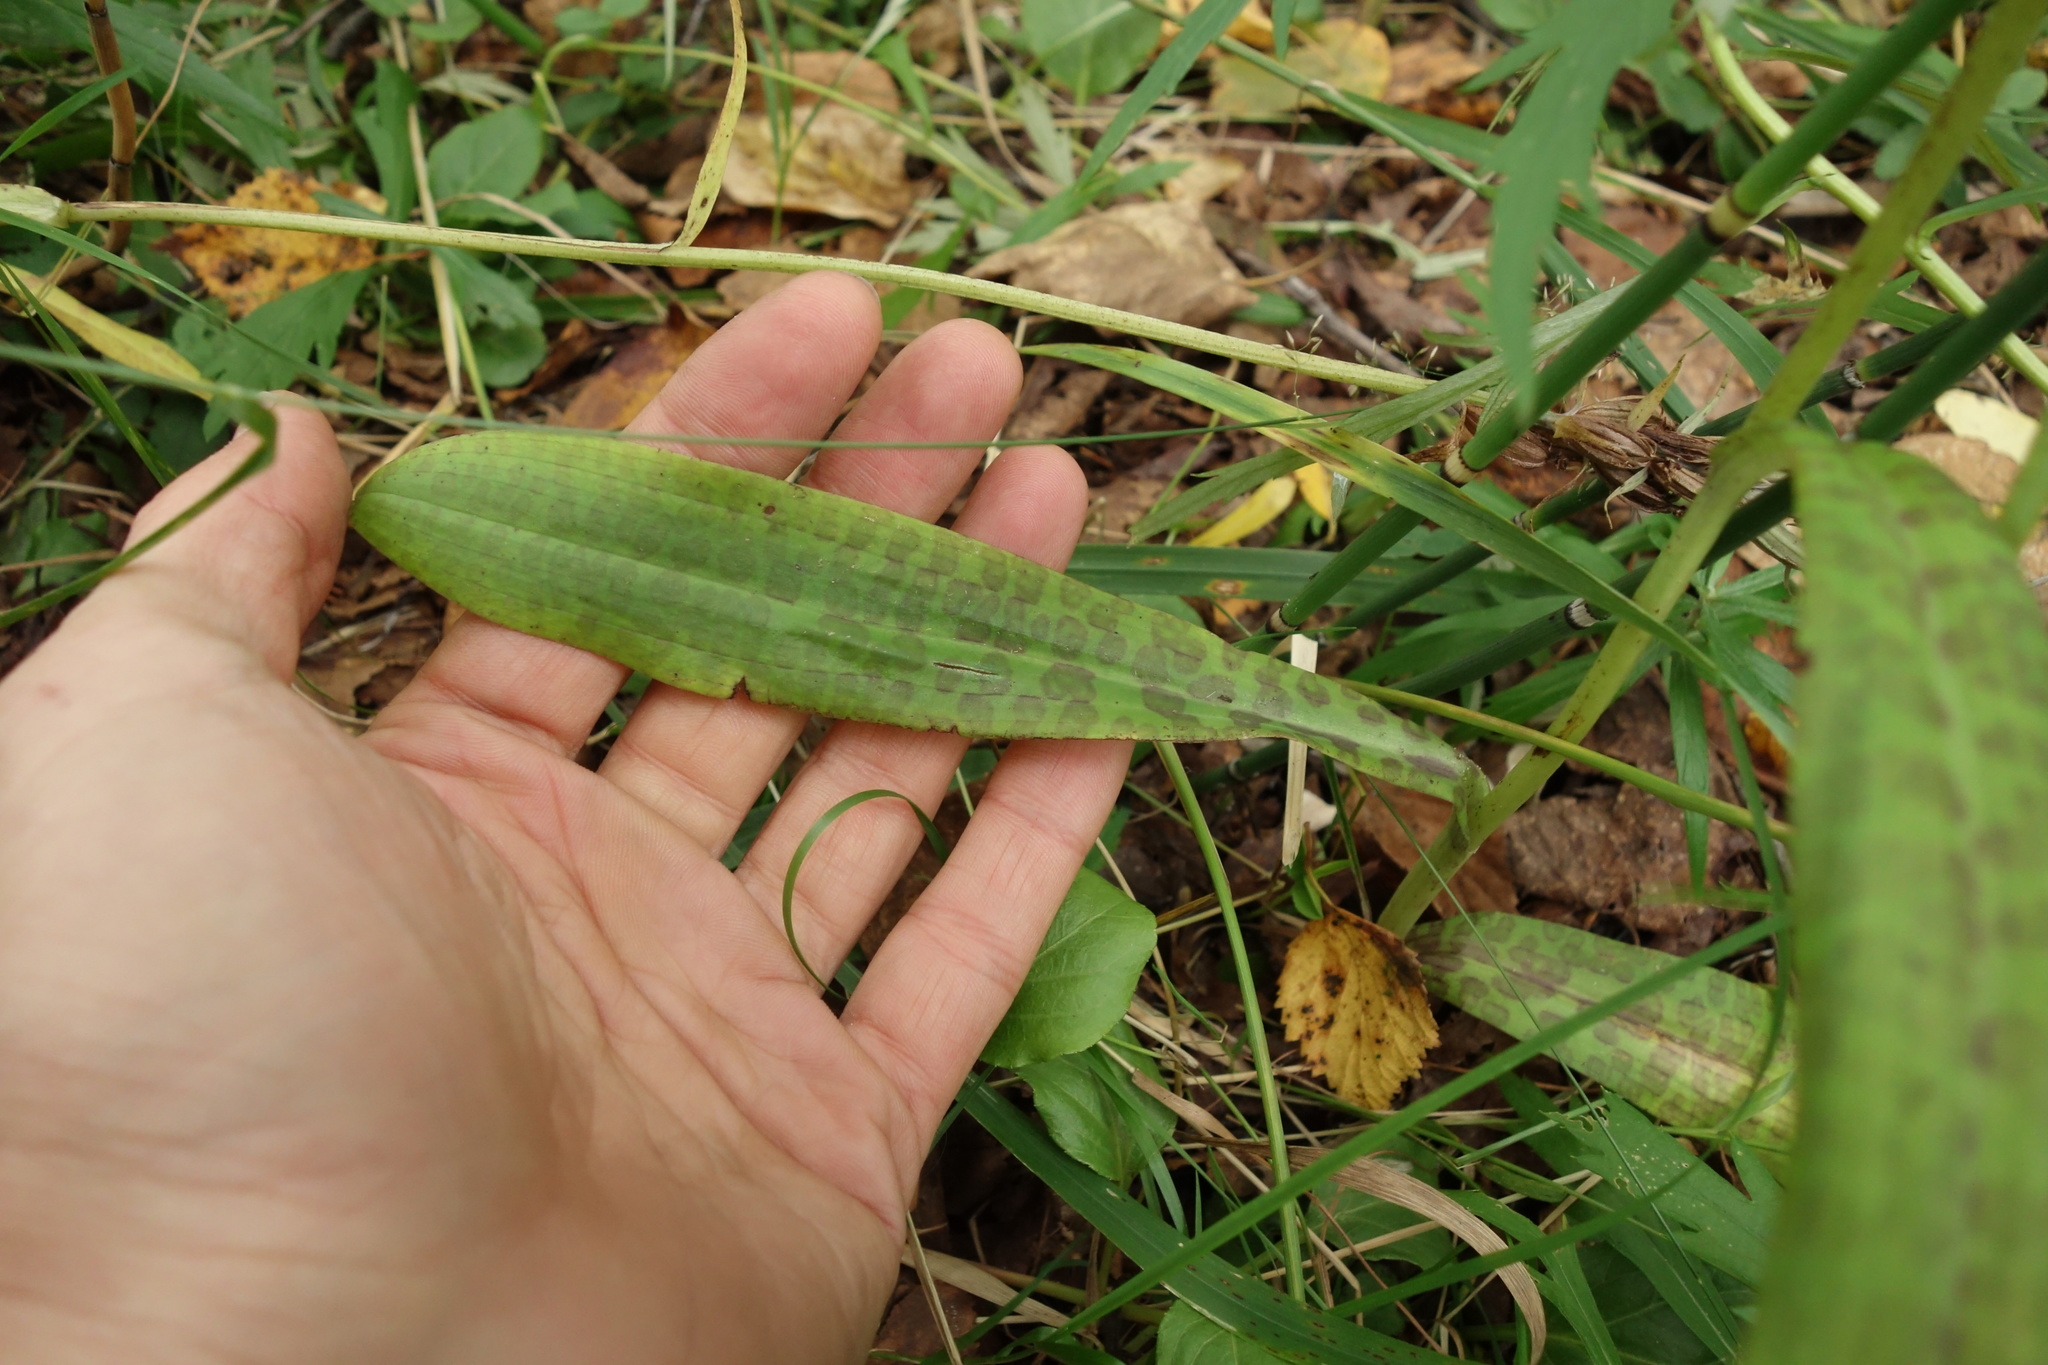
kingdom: Plantae
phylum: Tracheophyta
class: Liliopsida
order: Asparagales
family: Orchidaceae
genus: Dactylorhiza
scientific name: Dactylorhiza maculata
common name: Heath spotted-orchid
